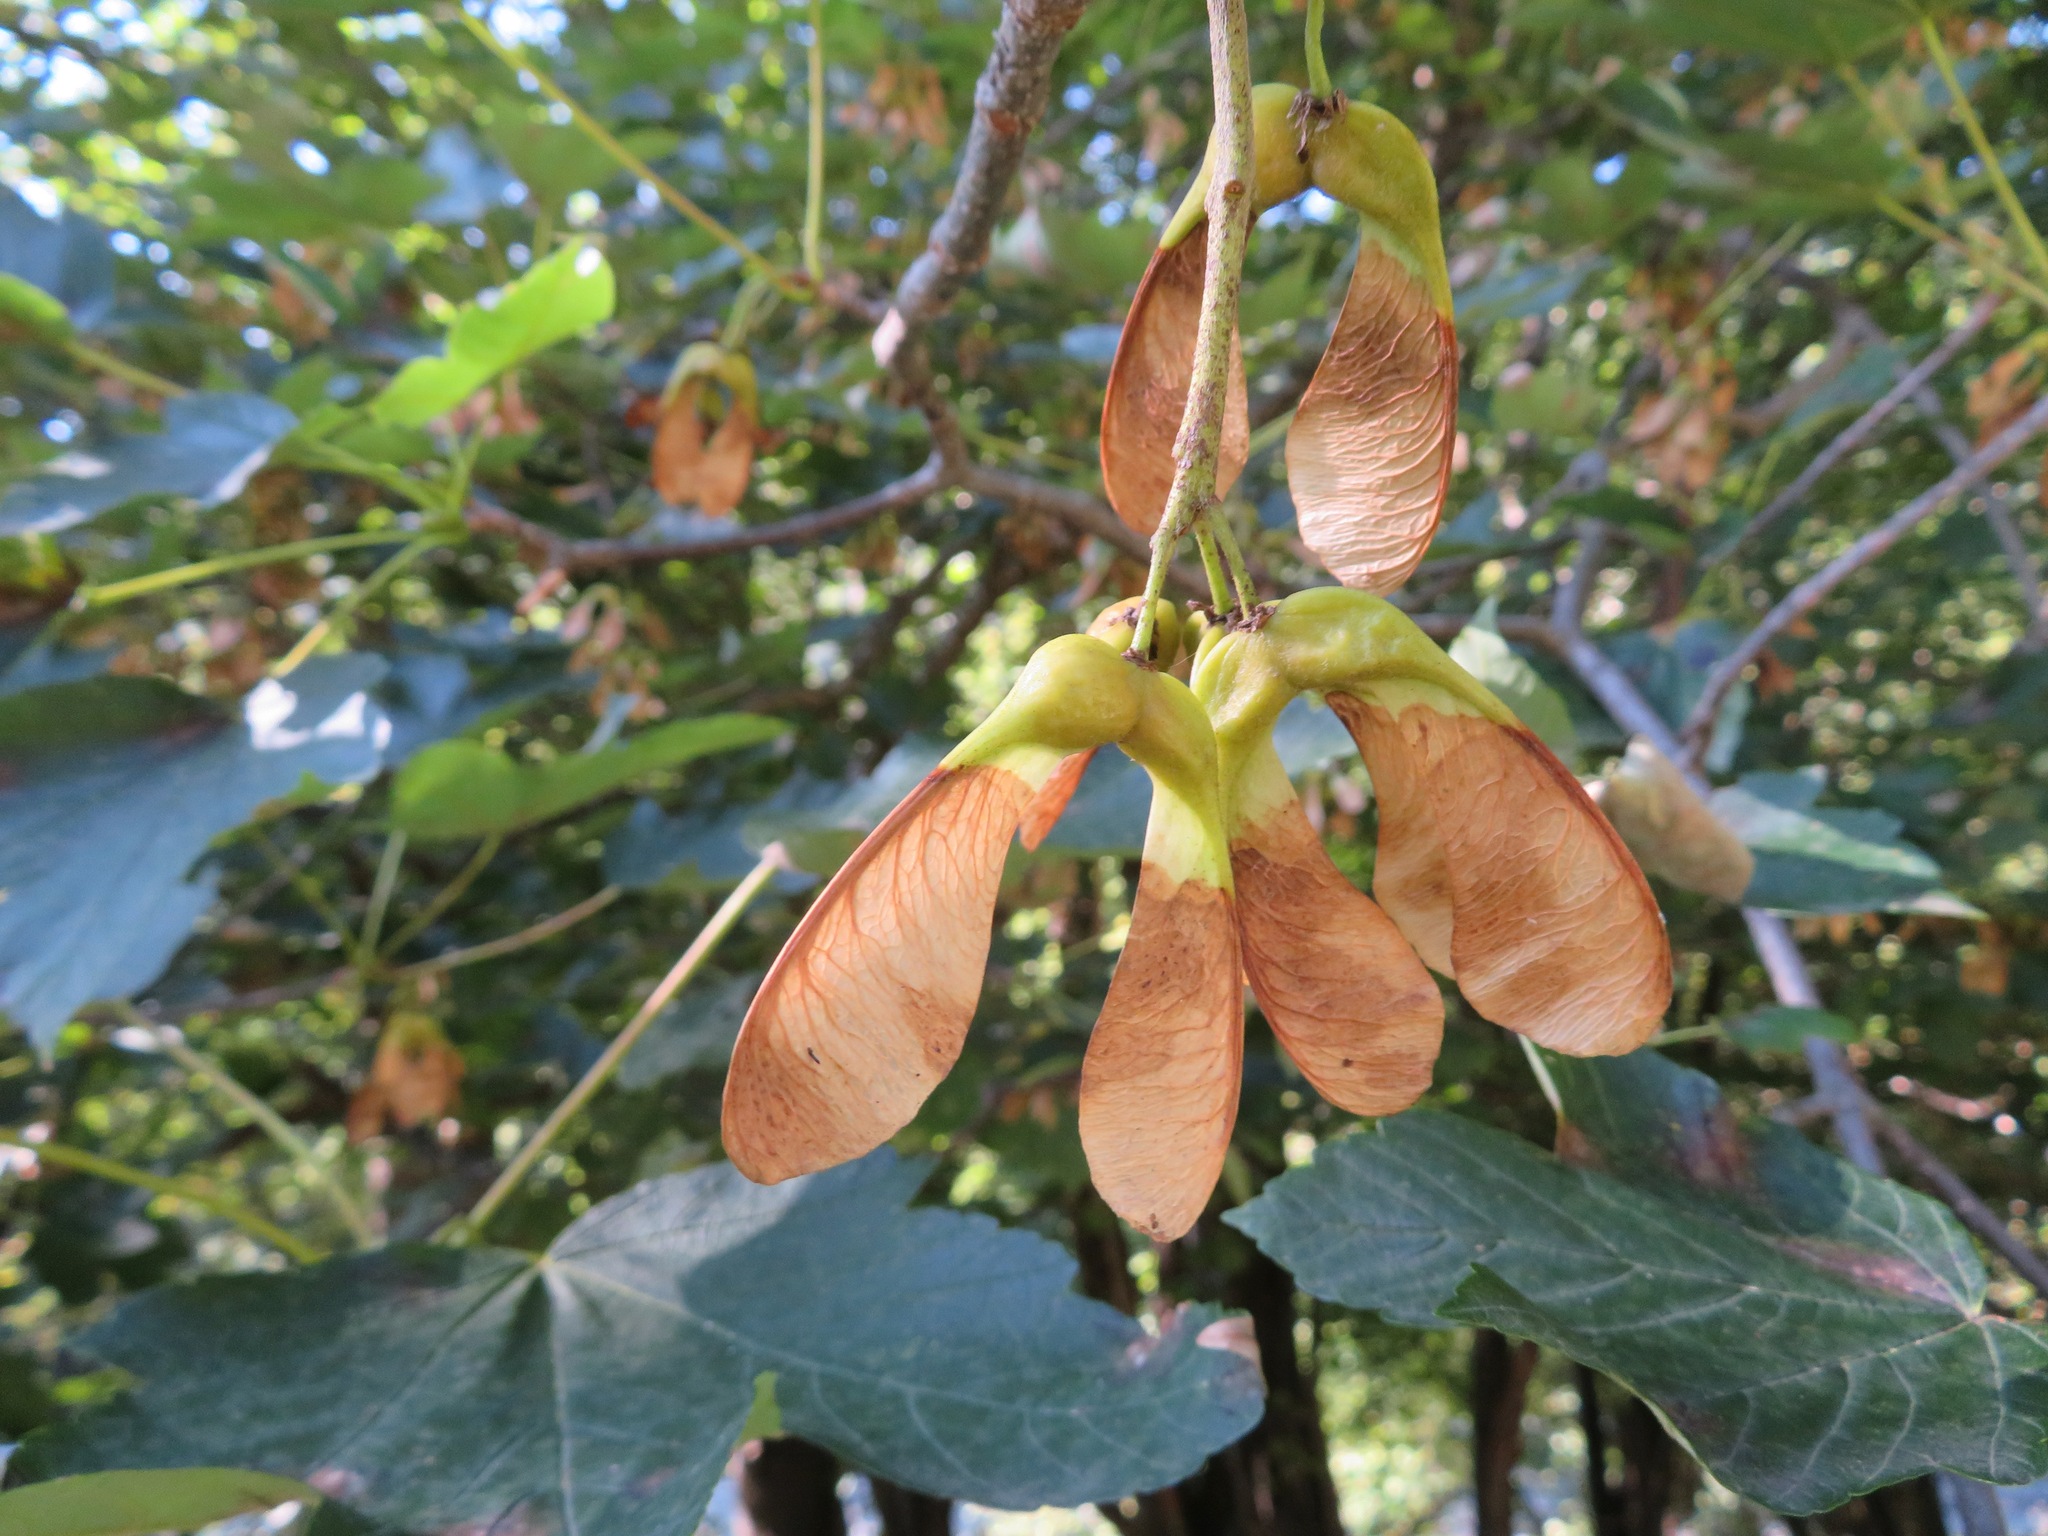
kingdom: Plantae
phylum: Tracheophyta
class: Magnoliopsida
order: Sapindales
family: Sapindaceae
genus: Acer
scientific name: Acer pseudoplatanus
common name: Sycamore
